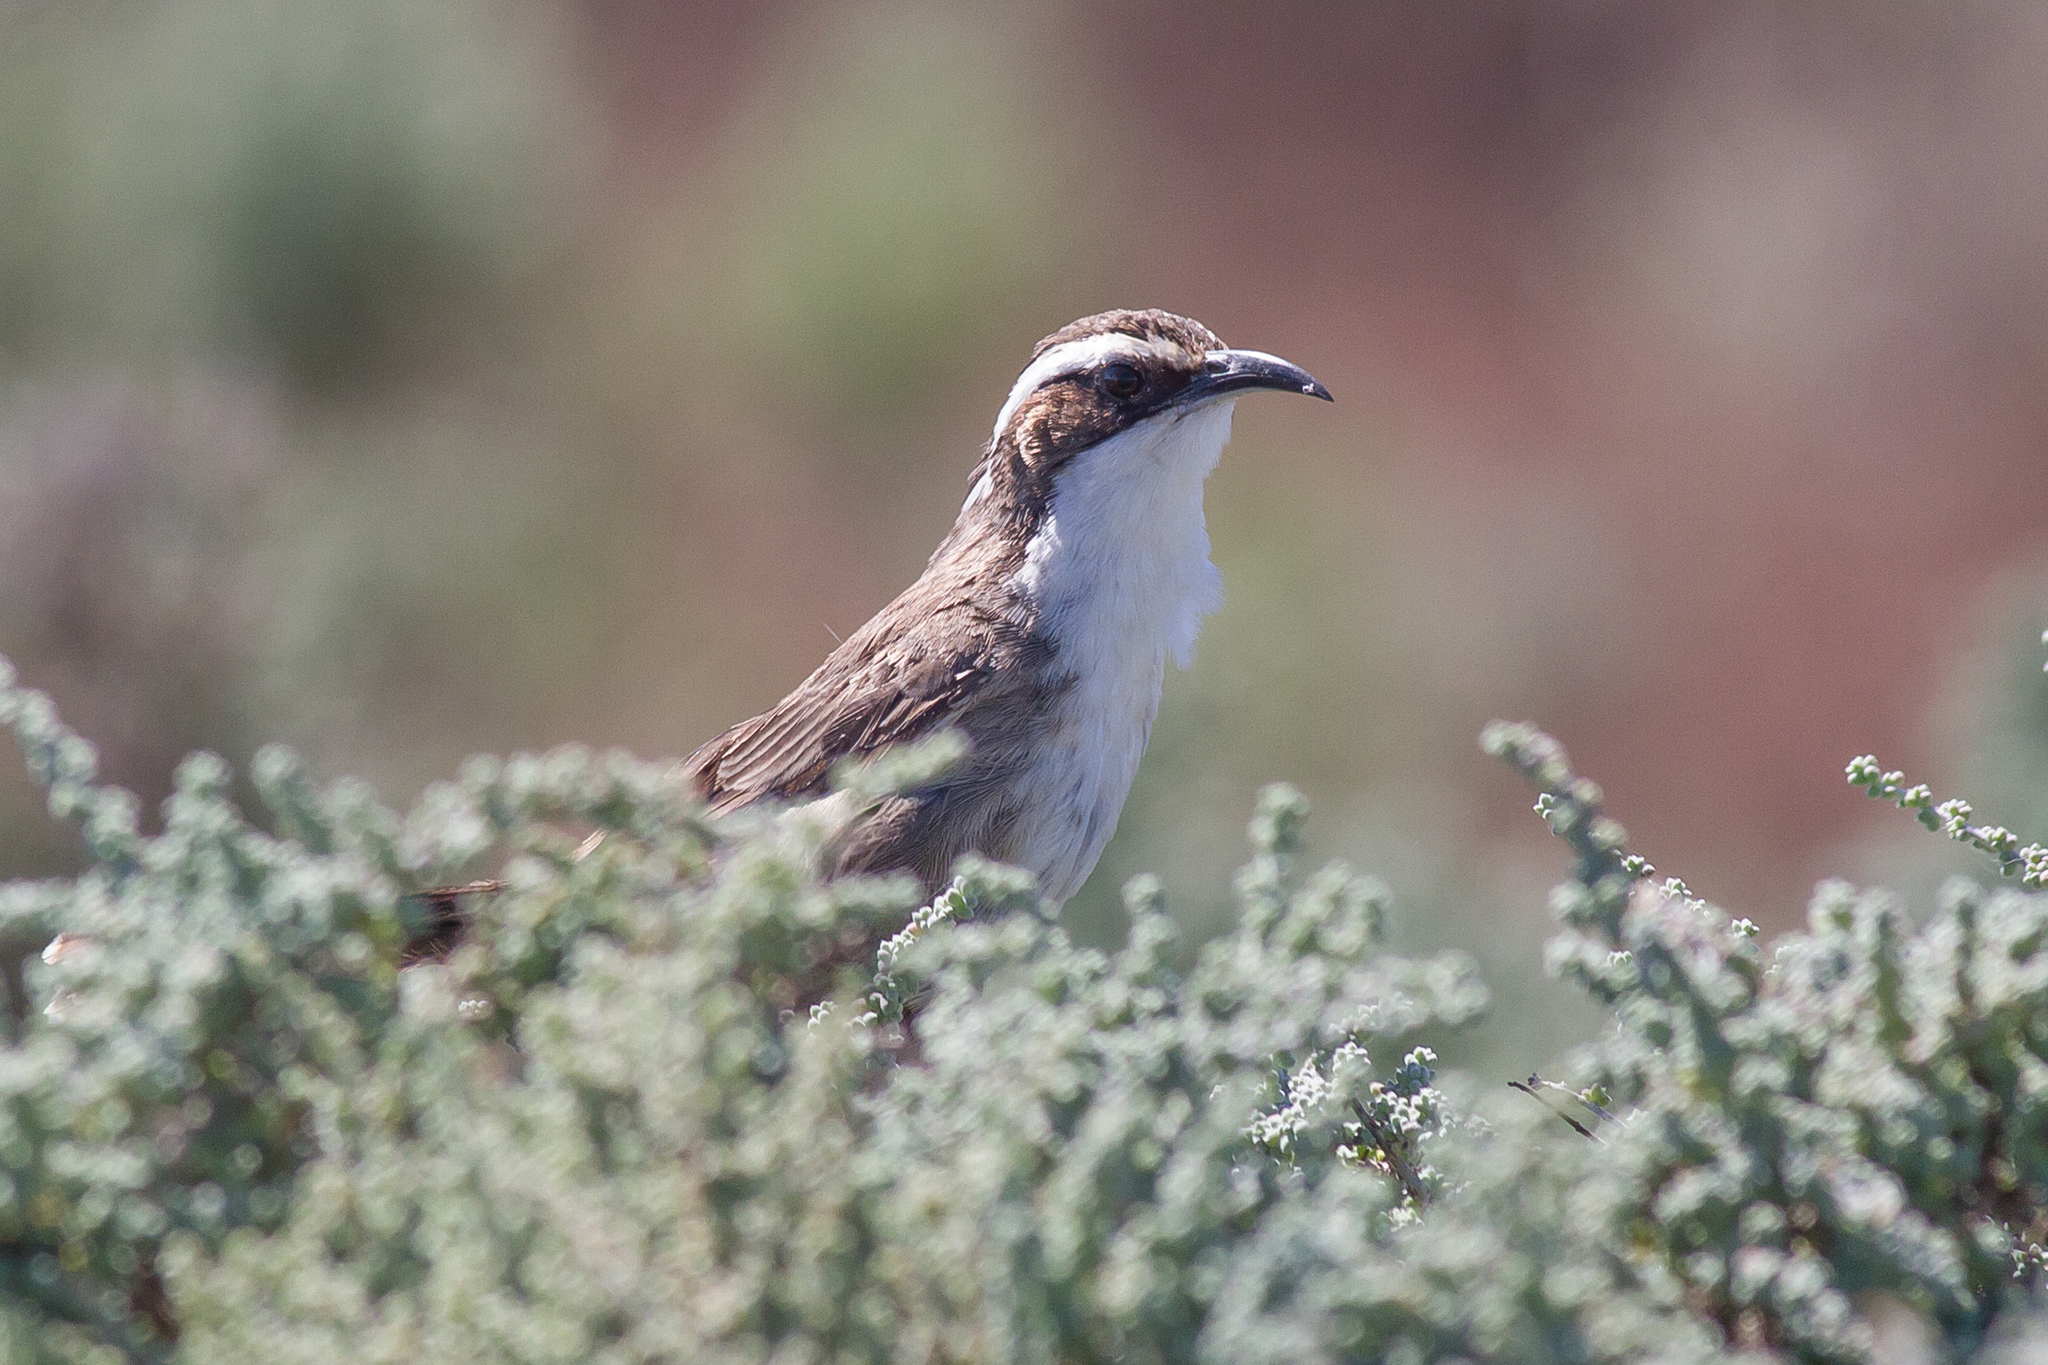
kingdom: Animalia
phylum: Chordata
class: Aves
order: Passeriformes
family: Pomatostomidae
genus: Pomatostomus
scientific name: Pomatostomus superciliosus
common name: White-browed babbler
